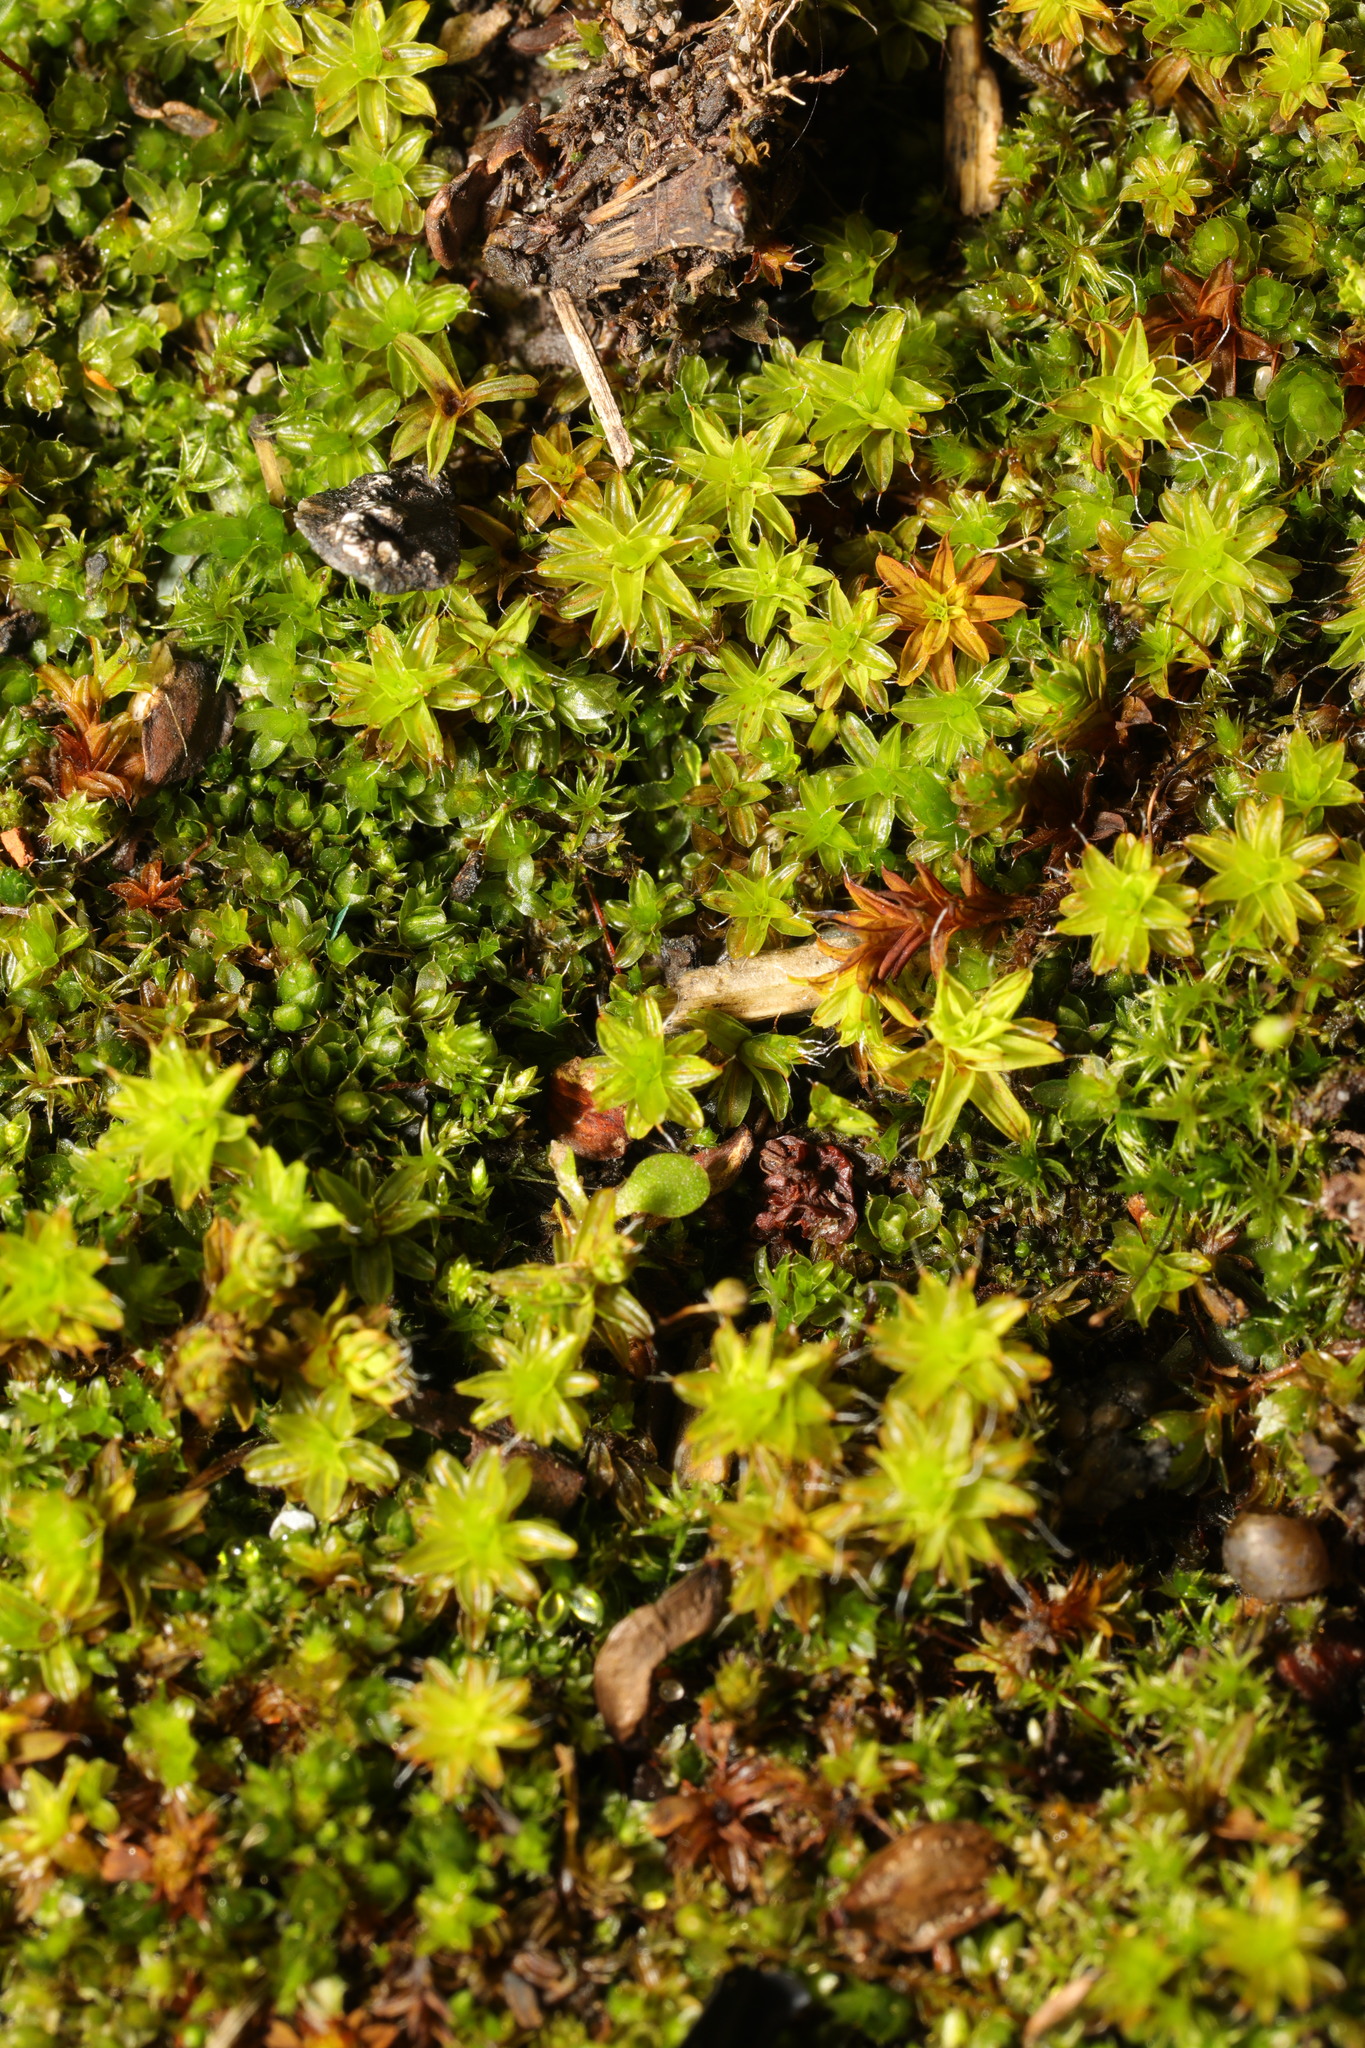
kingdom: Plantae
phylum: Bryophyta
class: Bryopsida
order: Pottiales
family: Pottiaceae
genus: Syntrichia
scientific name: Syntrichia ruralis
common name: Sidewalk screw moss
